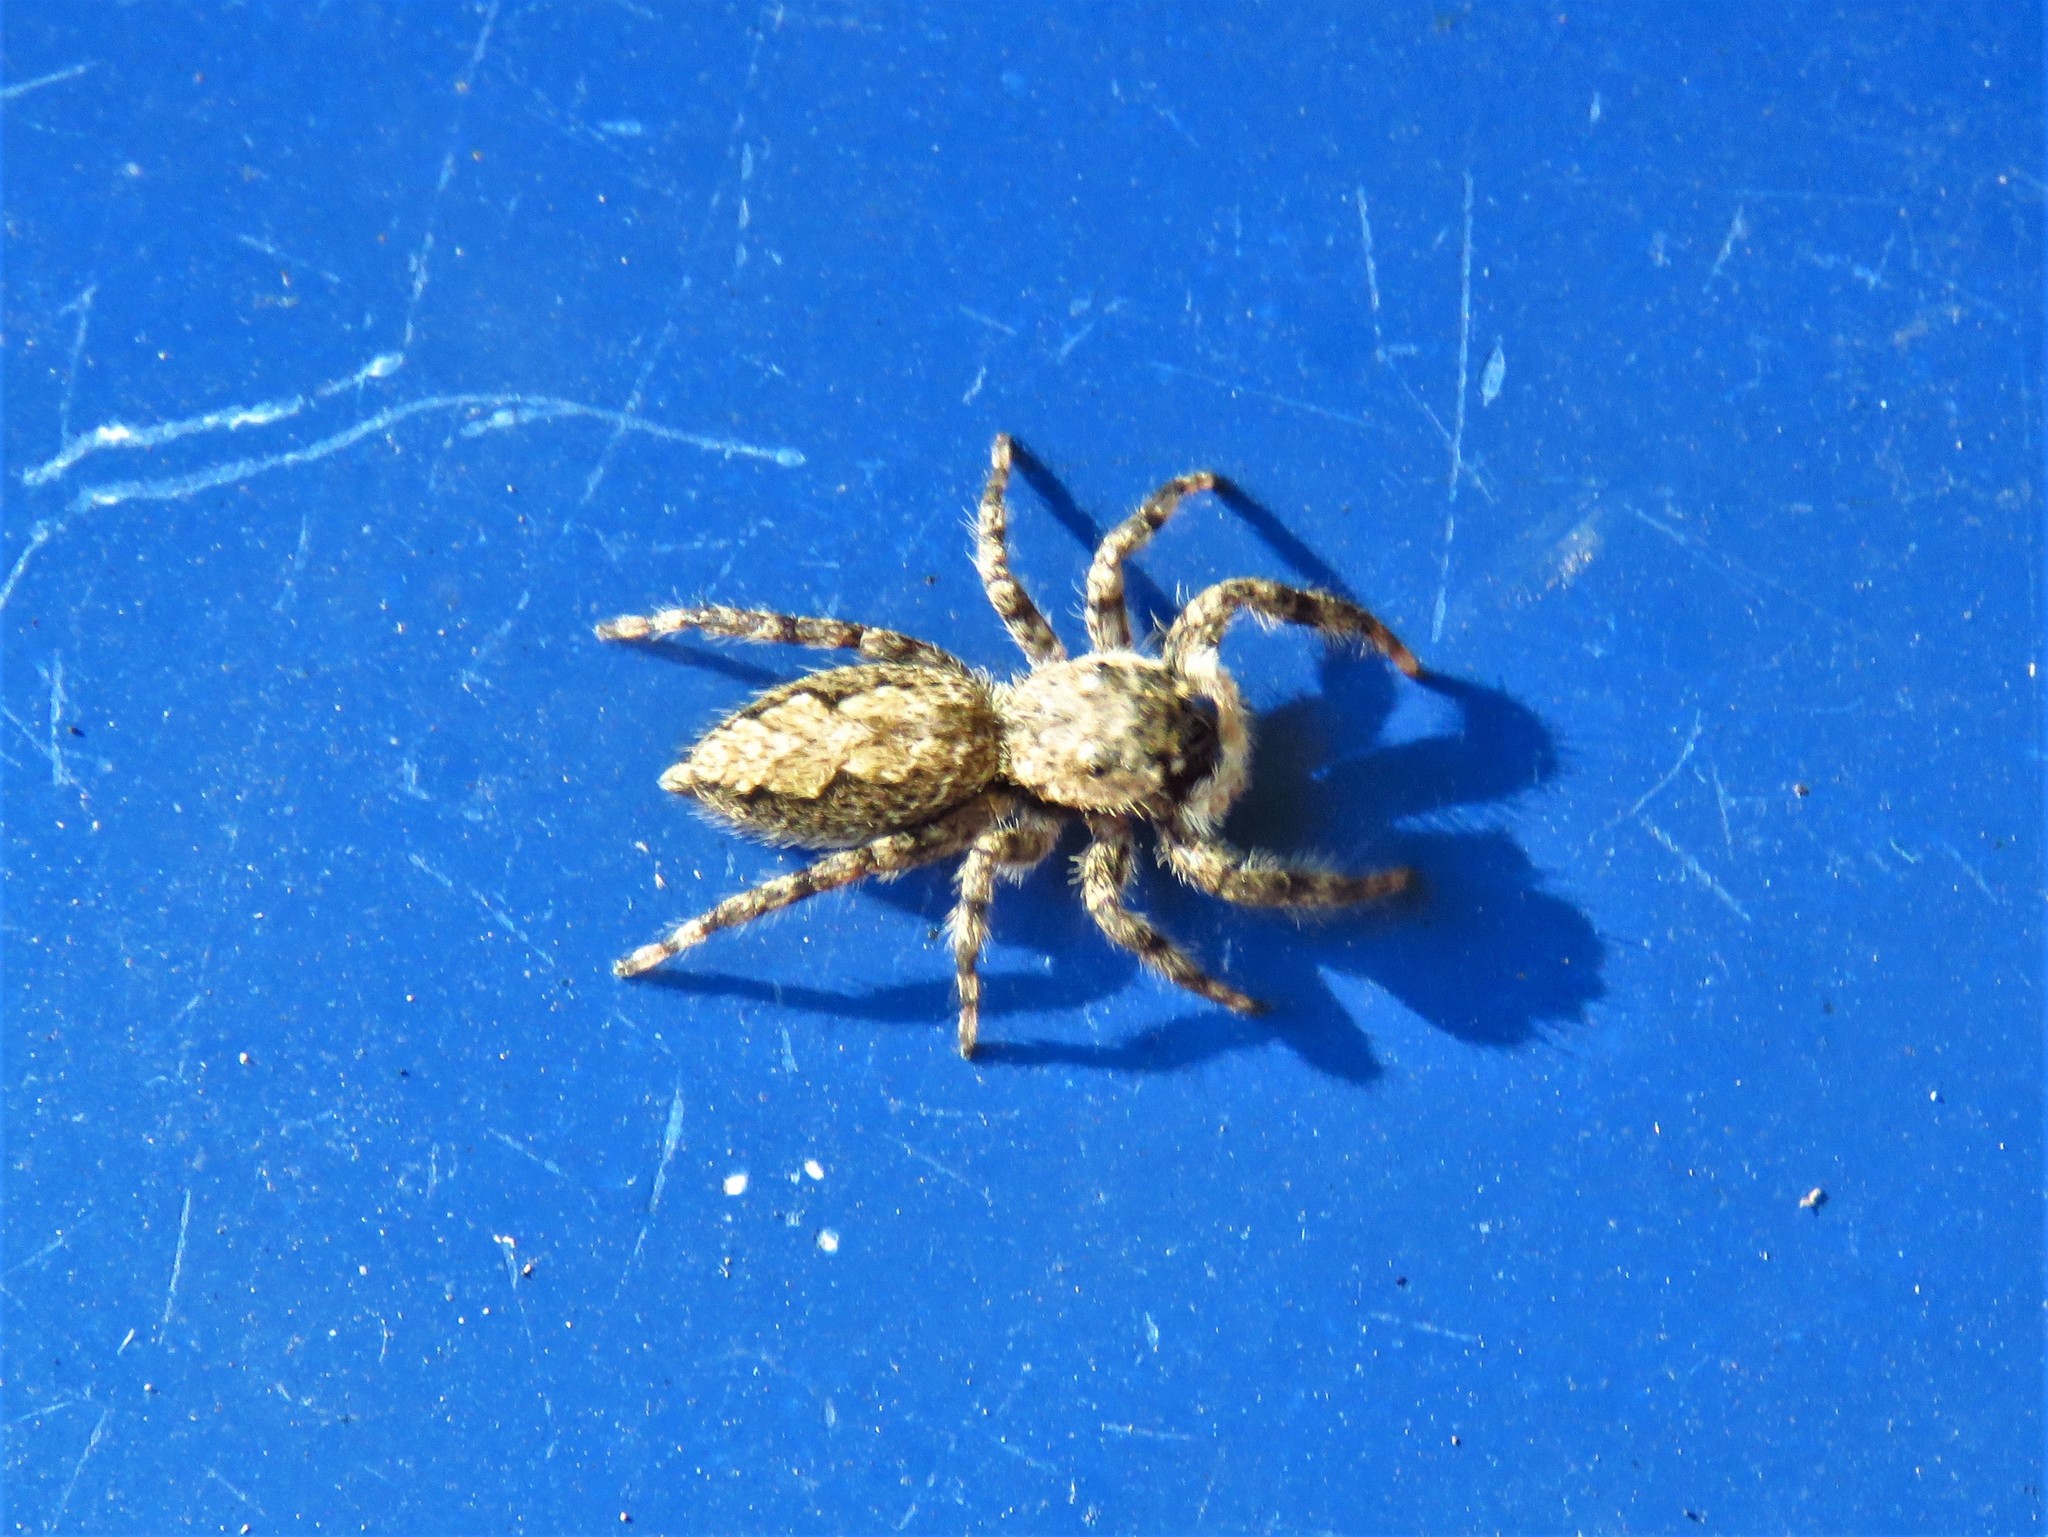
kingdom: Animalia
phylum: Arthropoda
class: Arachnida
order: Araneae
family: Salticidae
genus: Platycryptus
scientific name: Platycryptus undatus
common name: Tan jumping spider
